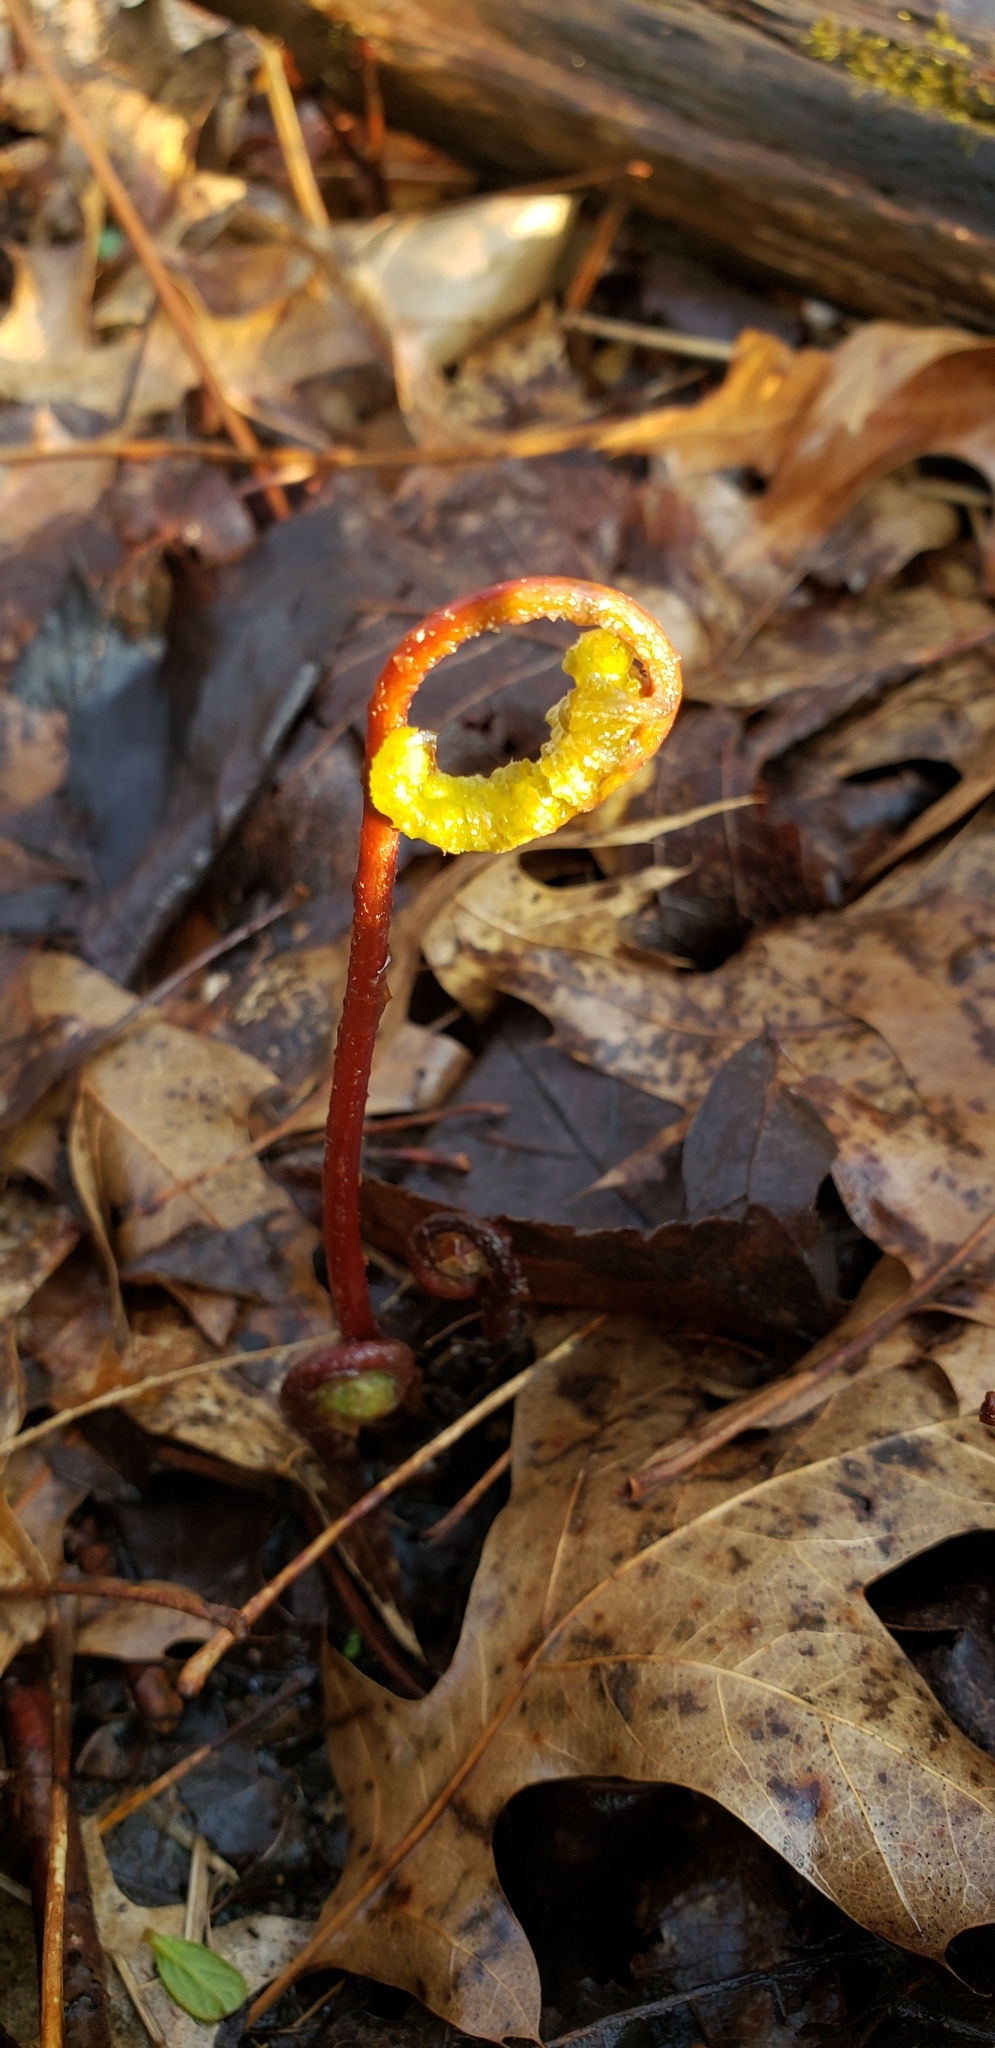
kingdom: Plantae
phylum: Tracheophyta
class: Polypodiopsida
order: Polypodiales
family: Onocleaceae
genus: Onoclea
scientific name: Onoclea sensibilis
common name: Sensitive fern
